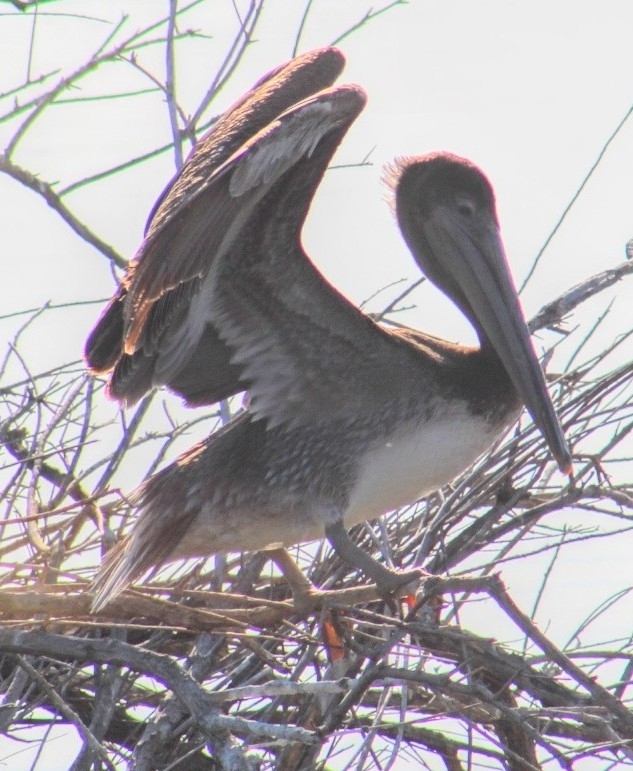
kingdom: Animalia
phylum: Chordata
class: Aves
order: Pelecaniformes
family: Pelecanidae
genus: Pelecanus
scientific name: Pelecanus occidentalis
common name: Brown pelican
